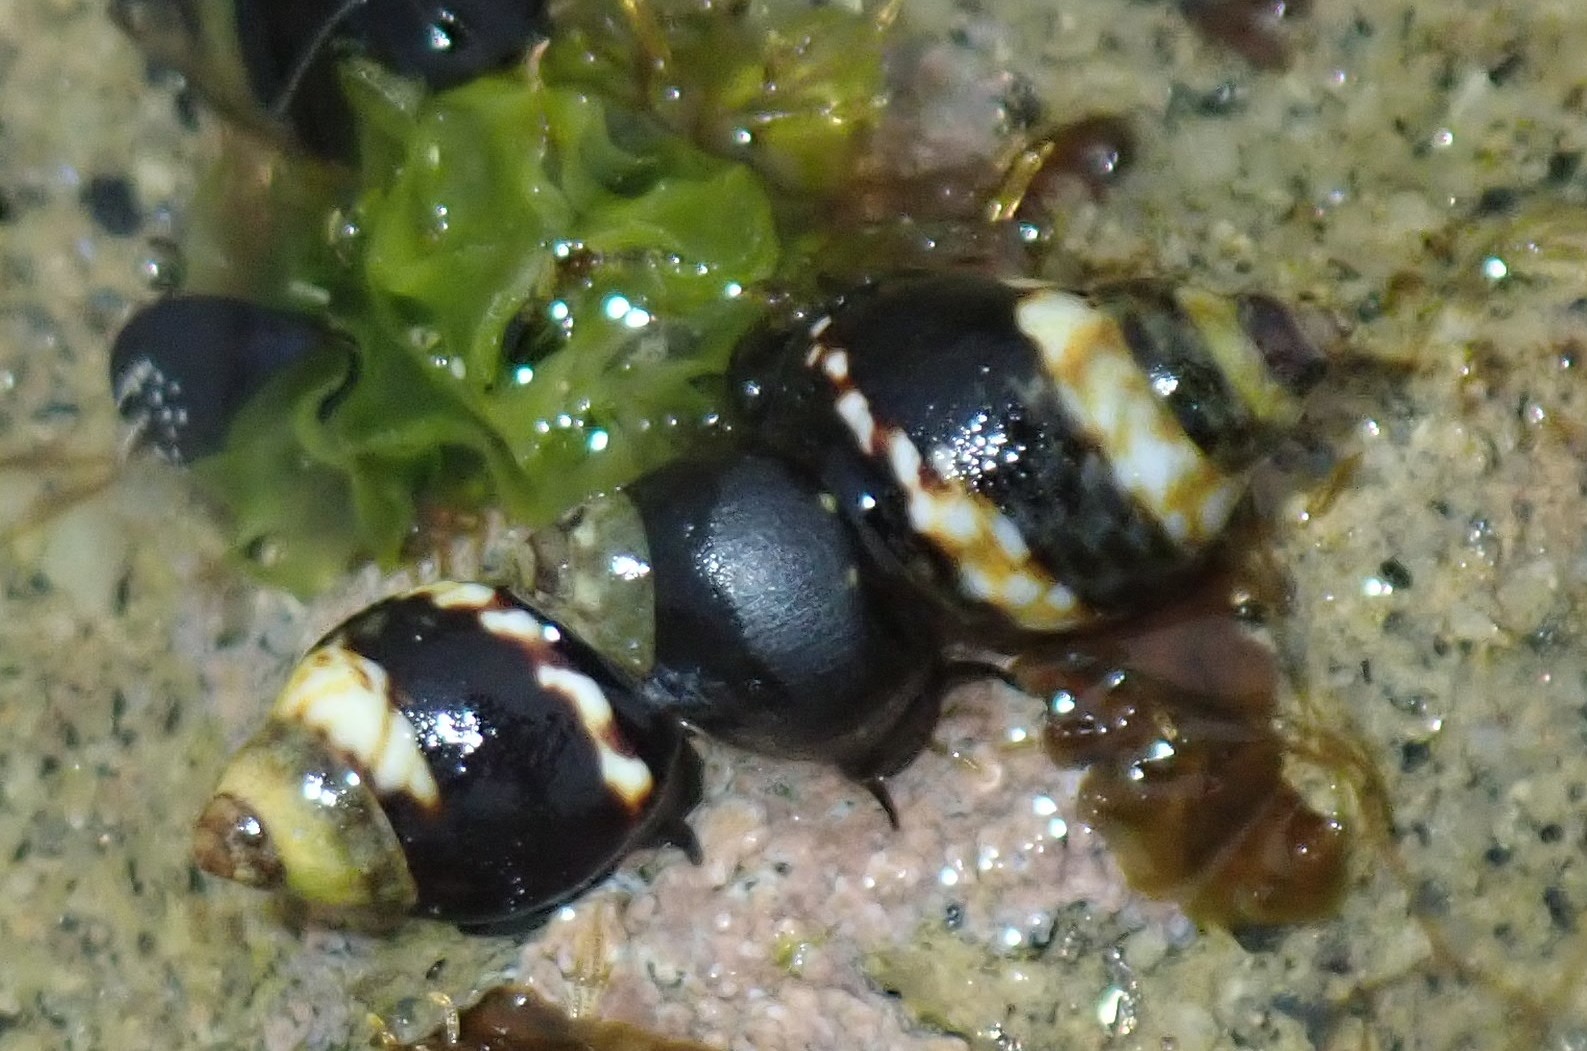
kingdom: Animalia
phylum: Mollusca
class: Gastropoda
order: Littorinimorpha
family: Littorinidae
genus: Littorina
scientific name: Littorina scutulata
